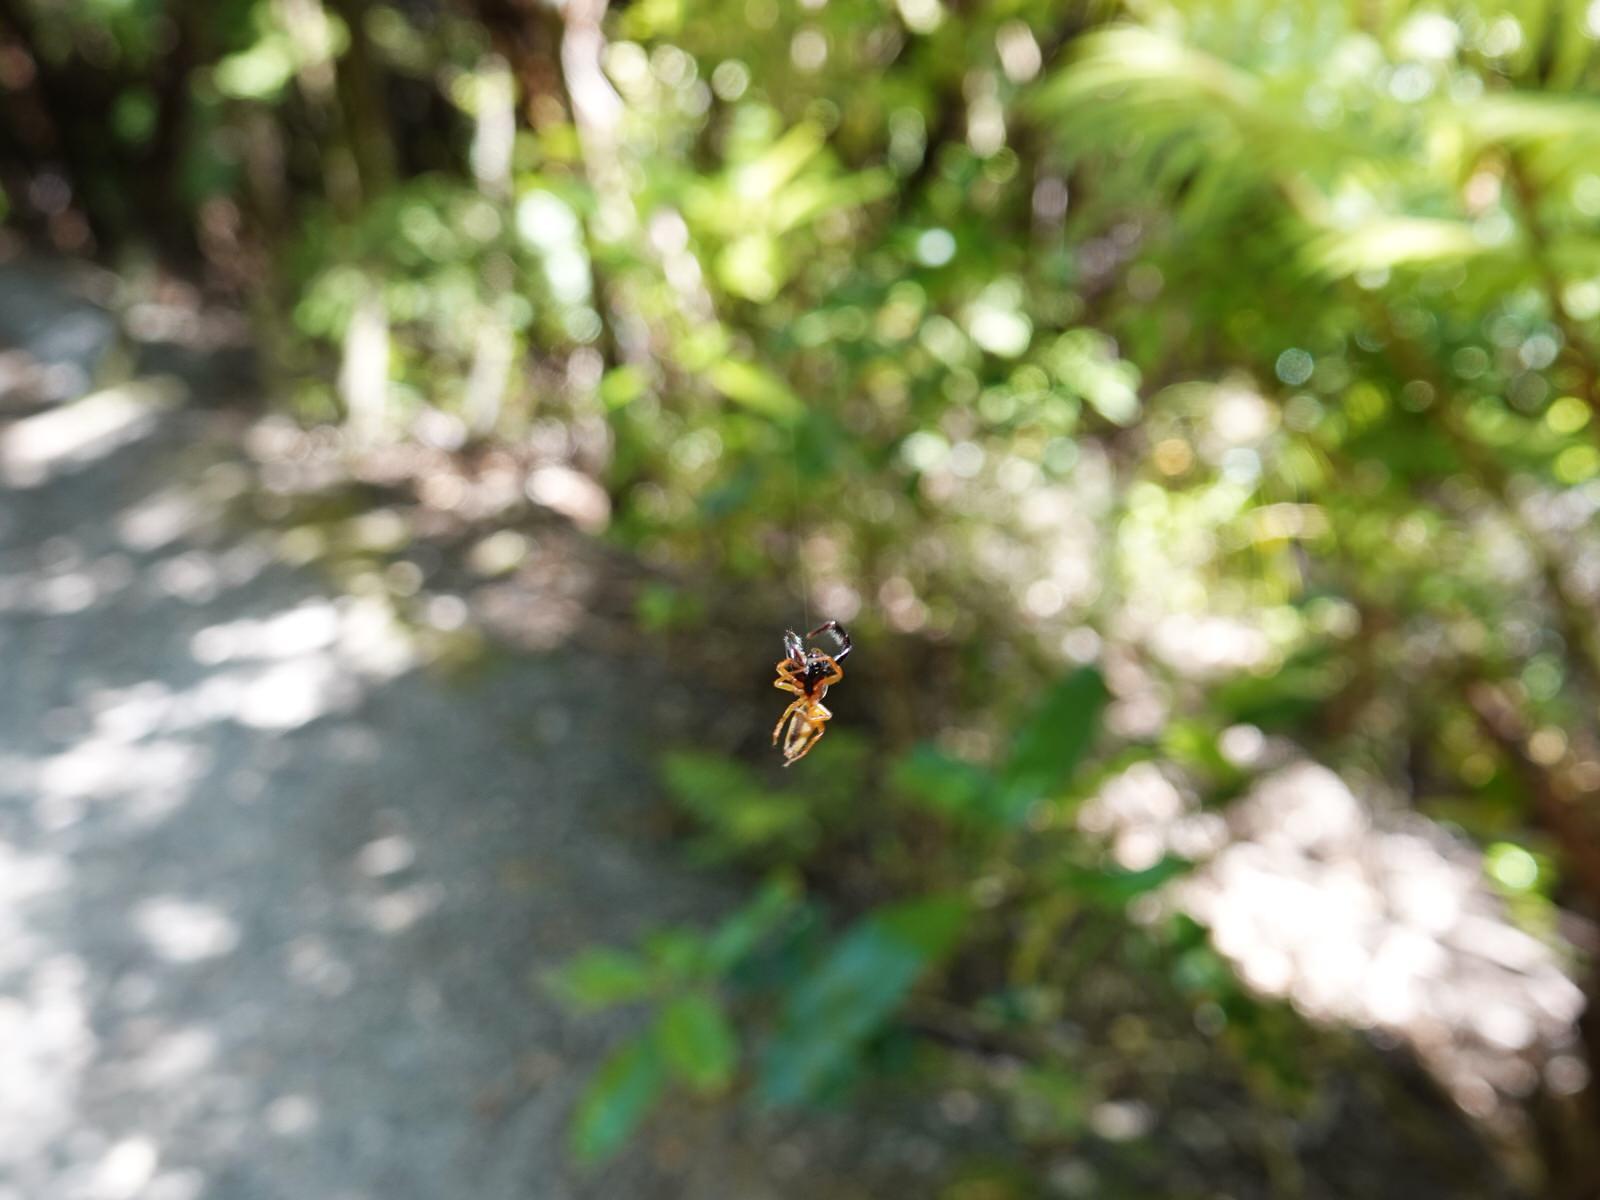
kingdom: Animalia
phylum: Arthropoda
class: Arachnida
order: Araneae
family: Salticidae
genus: Trite
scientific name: Trite planiceps
